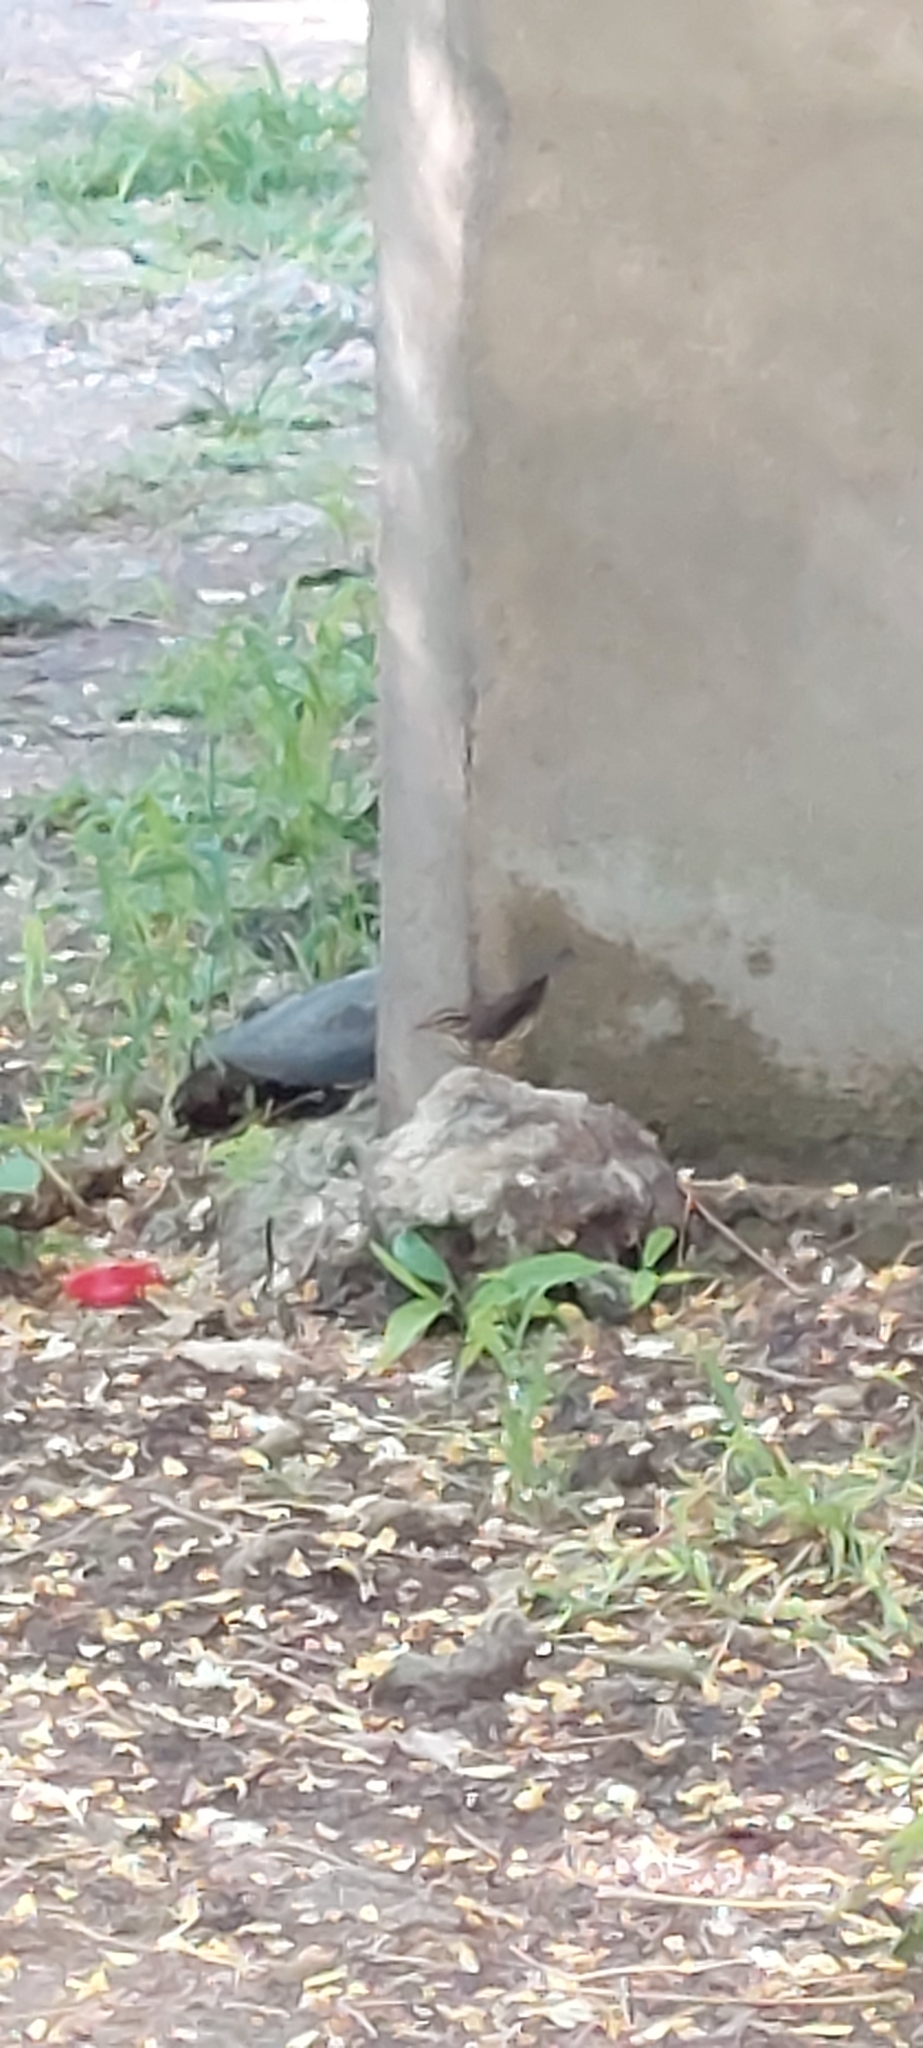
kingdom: Animalia
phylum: Chordata
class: Aves
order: Passeriformes
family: Parulidae
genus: Parkesia
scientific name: Parkesia noveboracensis
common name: Northern waterthrush
